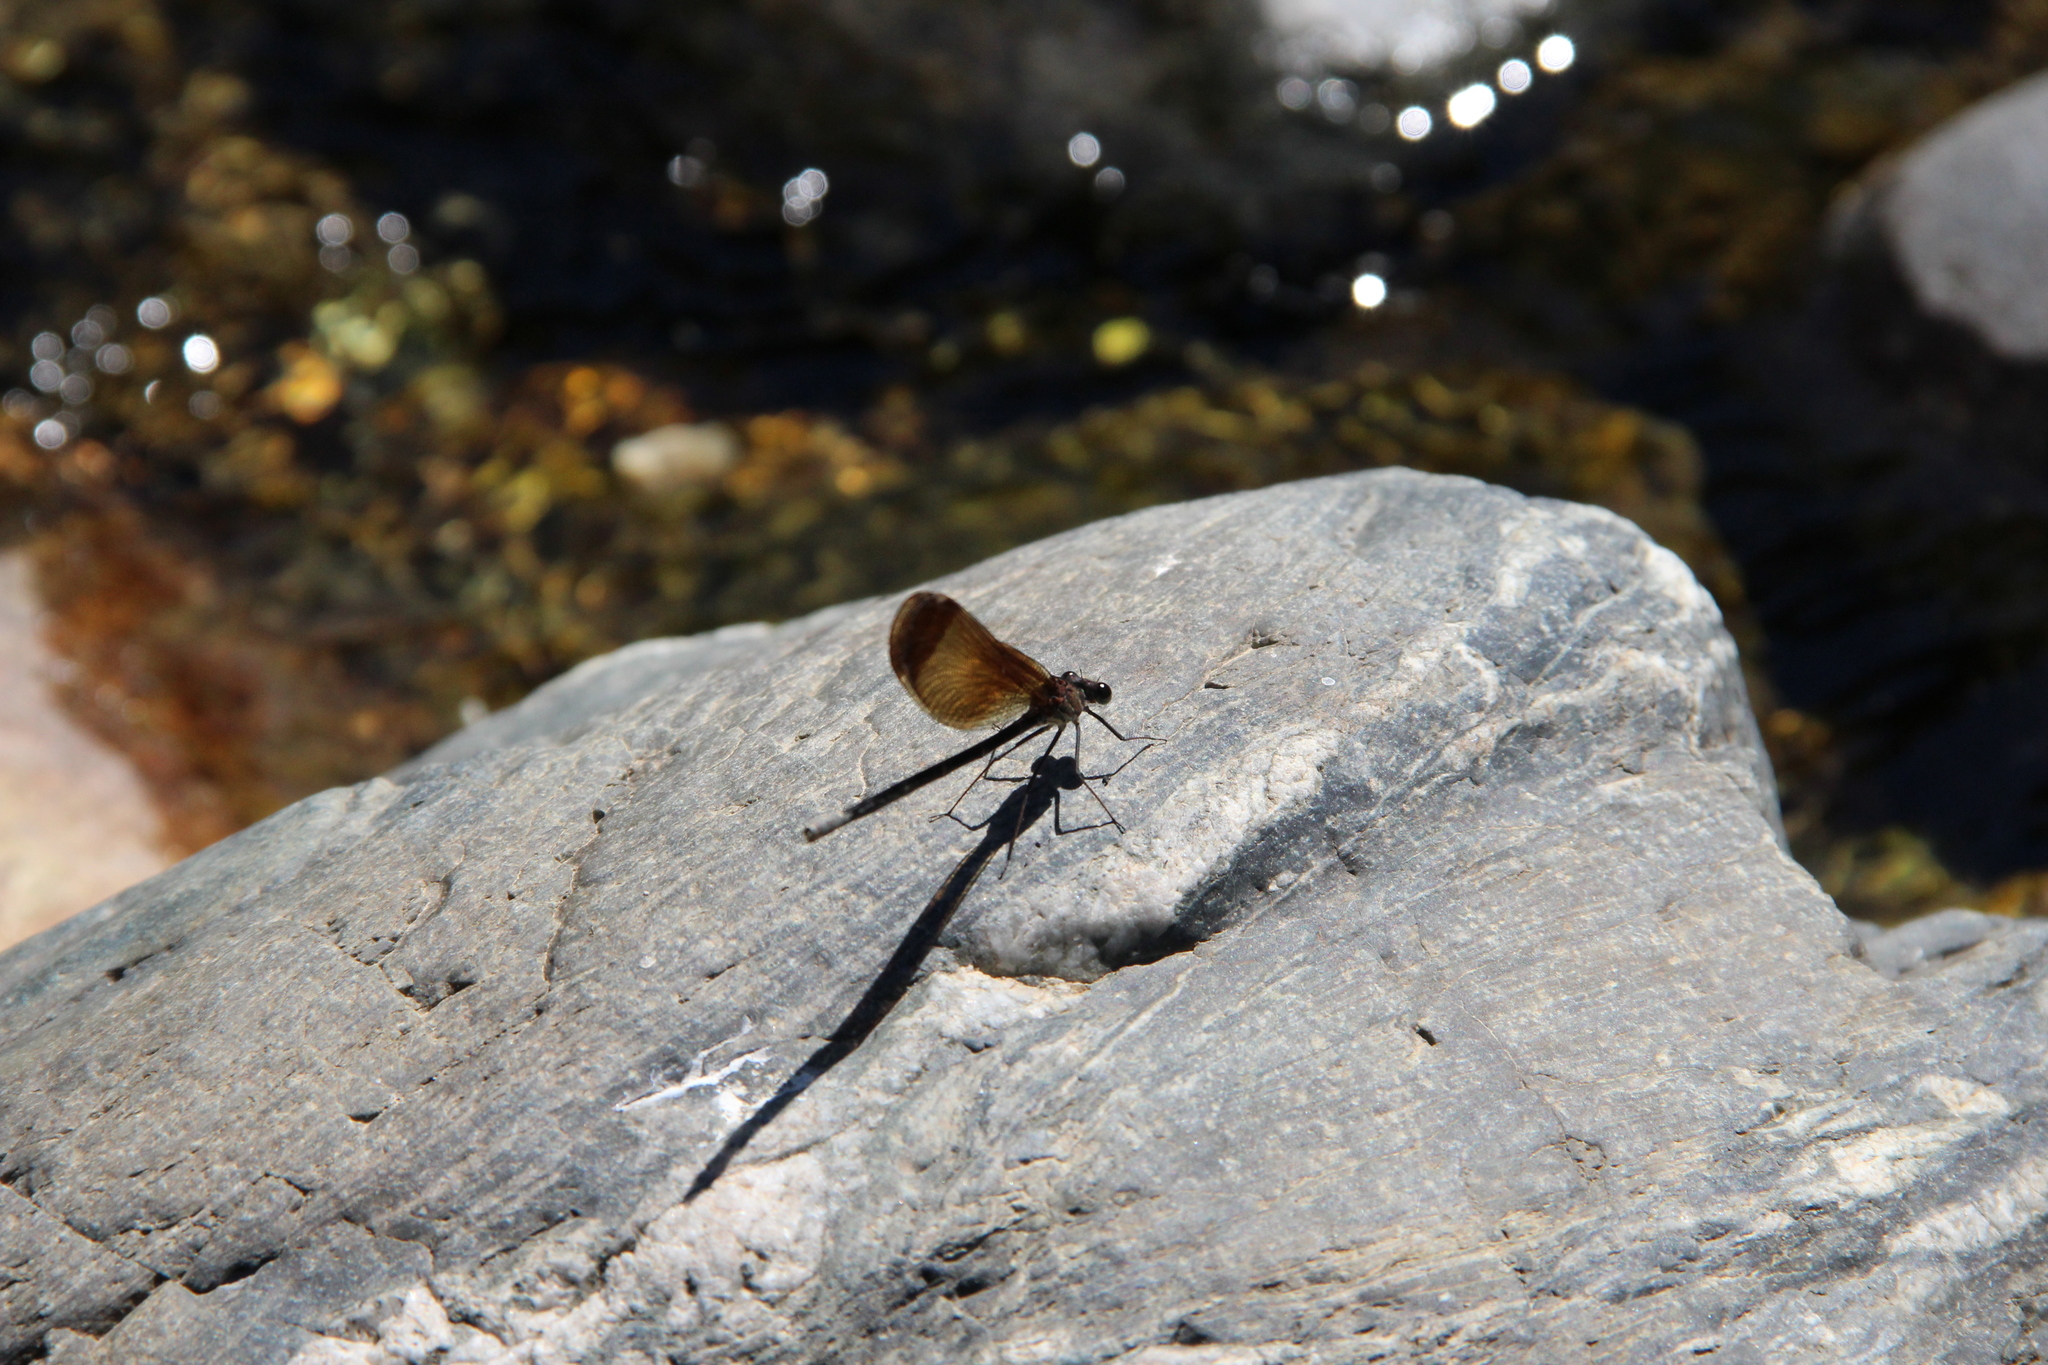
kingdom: Animalia
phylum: Arthropoda
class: Insecta
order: Odonata
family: Calopterygidae
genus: Calopteryx
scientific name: Calopteryx haemorrhoidalis
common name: Copper demoiselle
